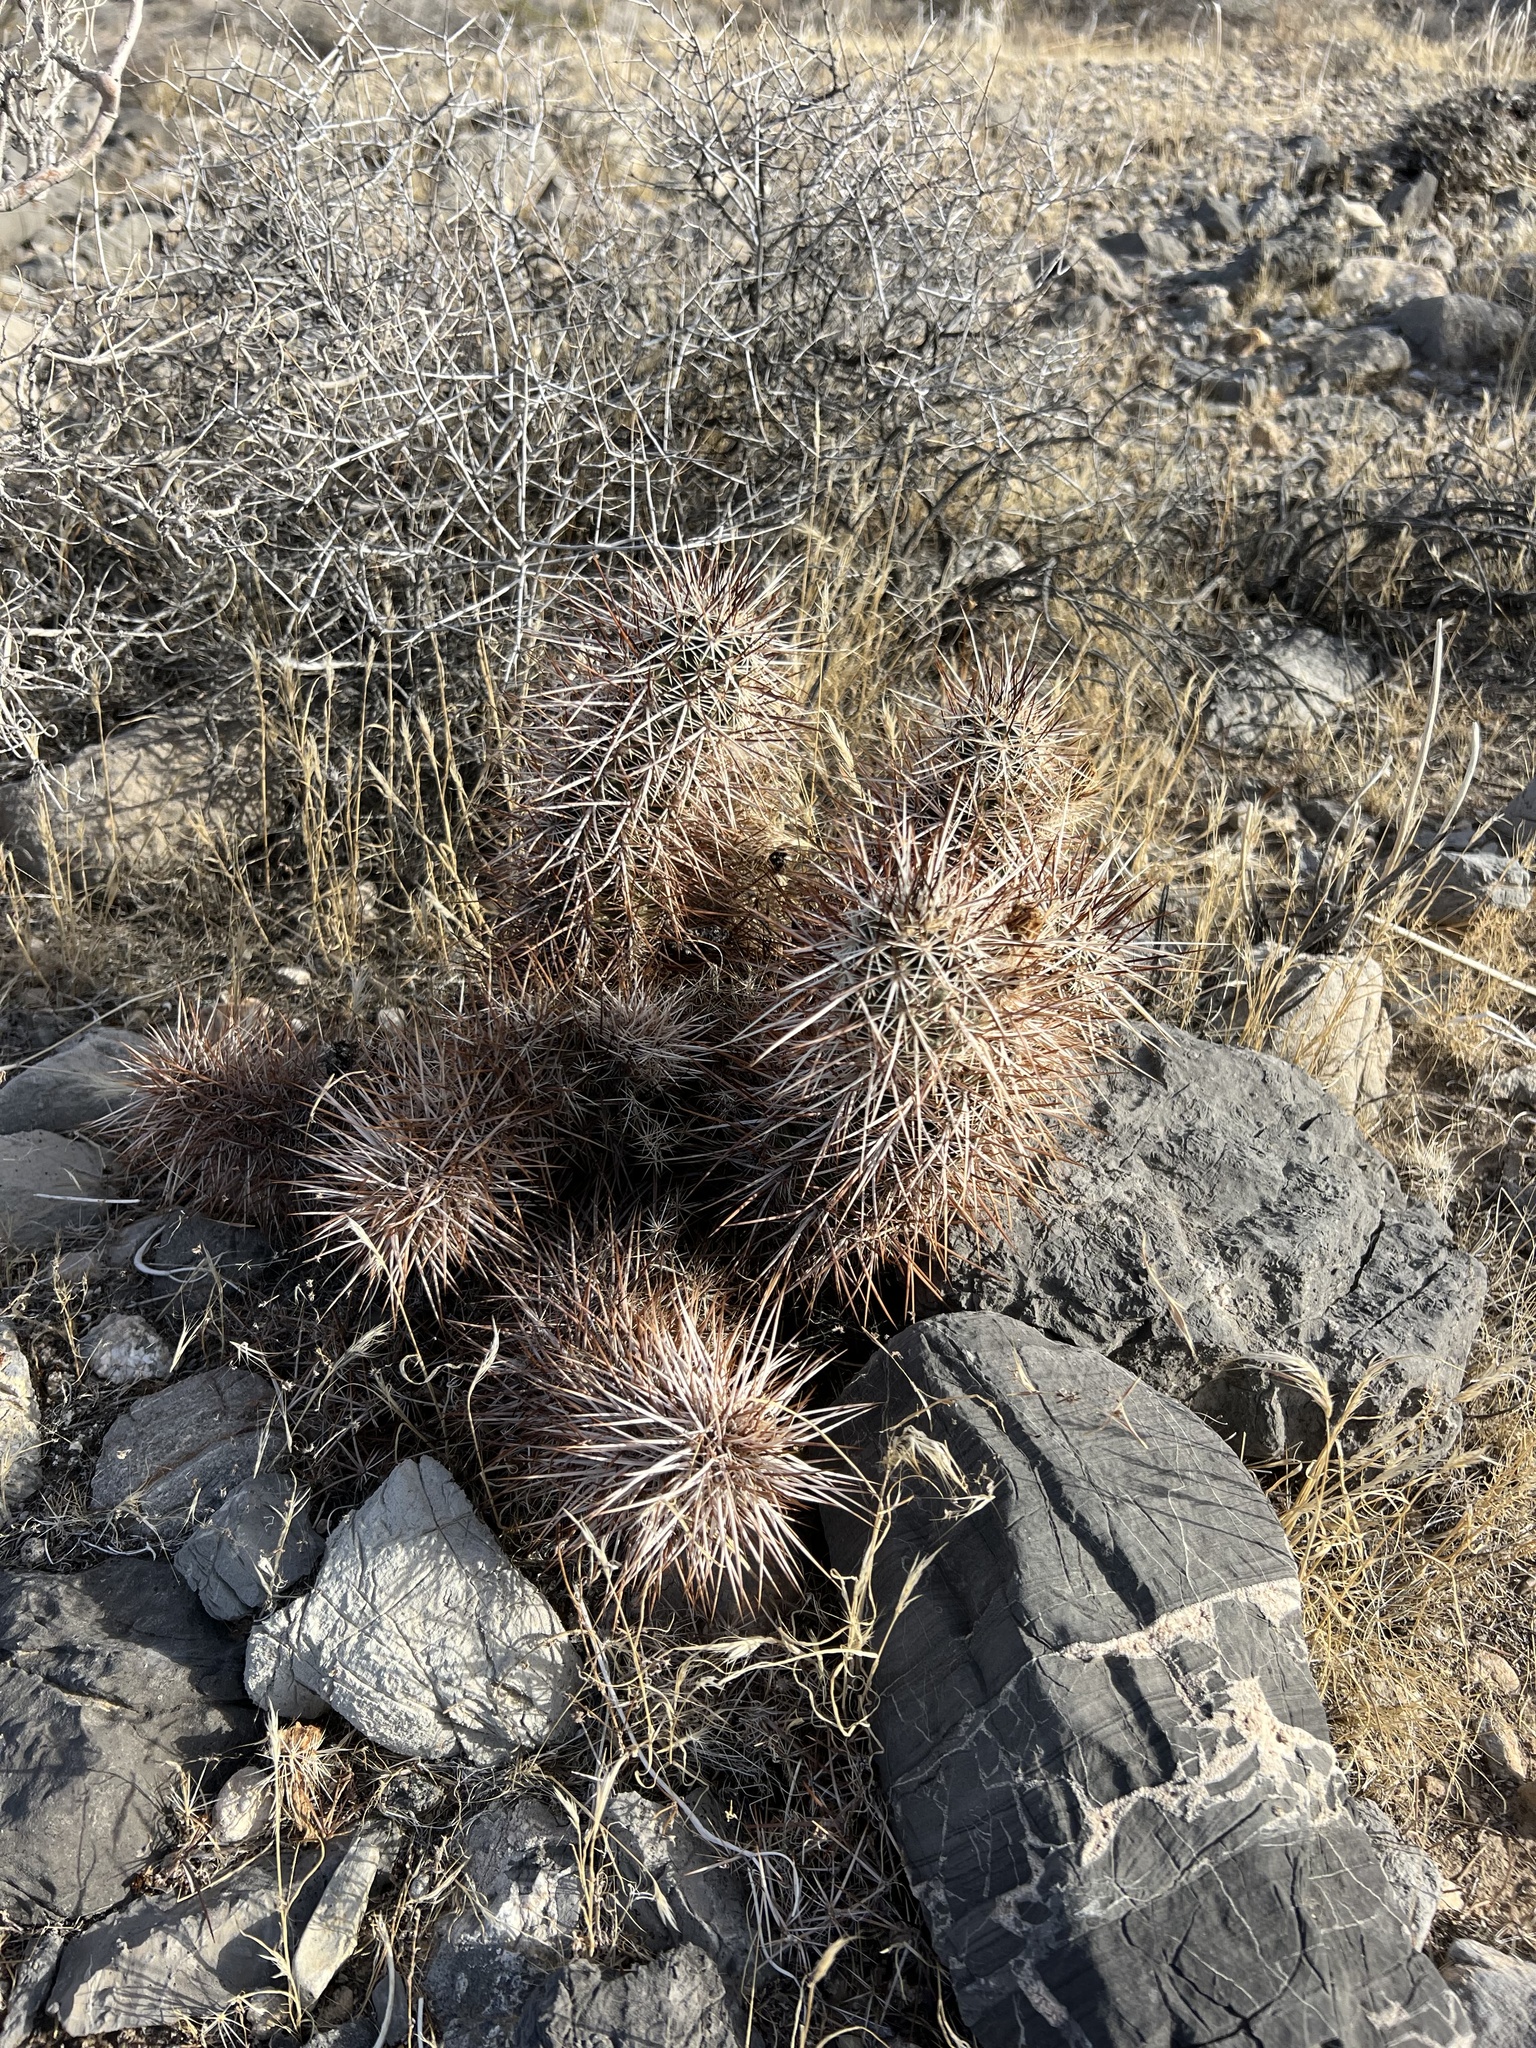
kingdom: Plantae
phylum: Tracheophyta
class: Magnoliopsida
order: Caryophyllales
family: Cactaceae
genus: Echinocereus
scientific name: Echinocereus engelmannii
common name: Engelmann's hedgehog cactus
